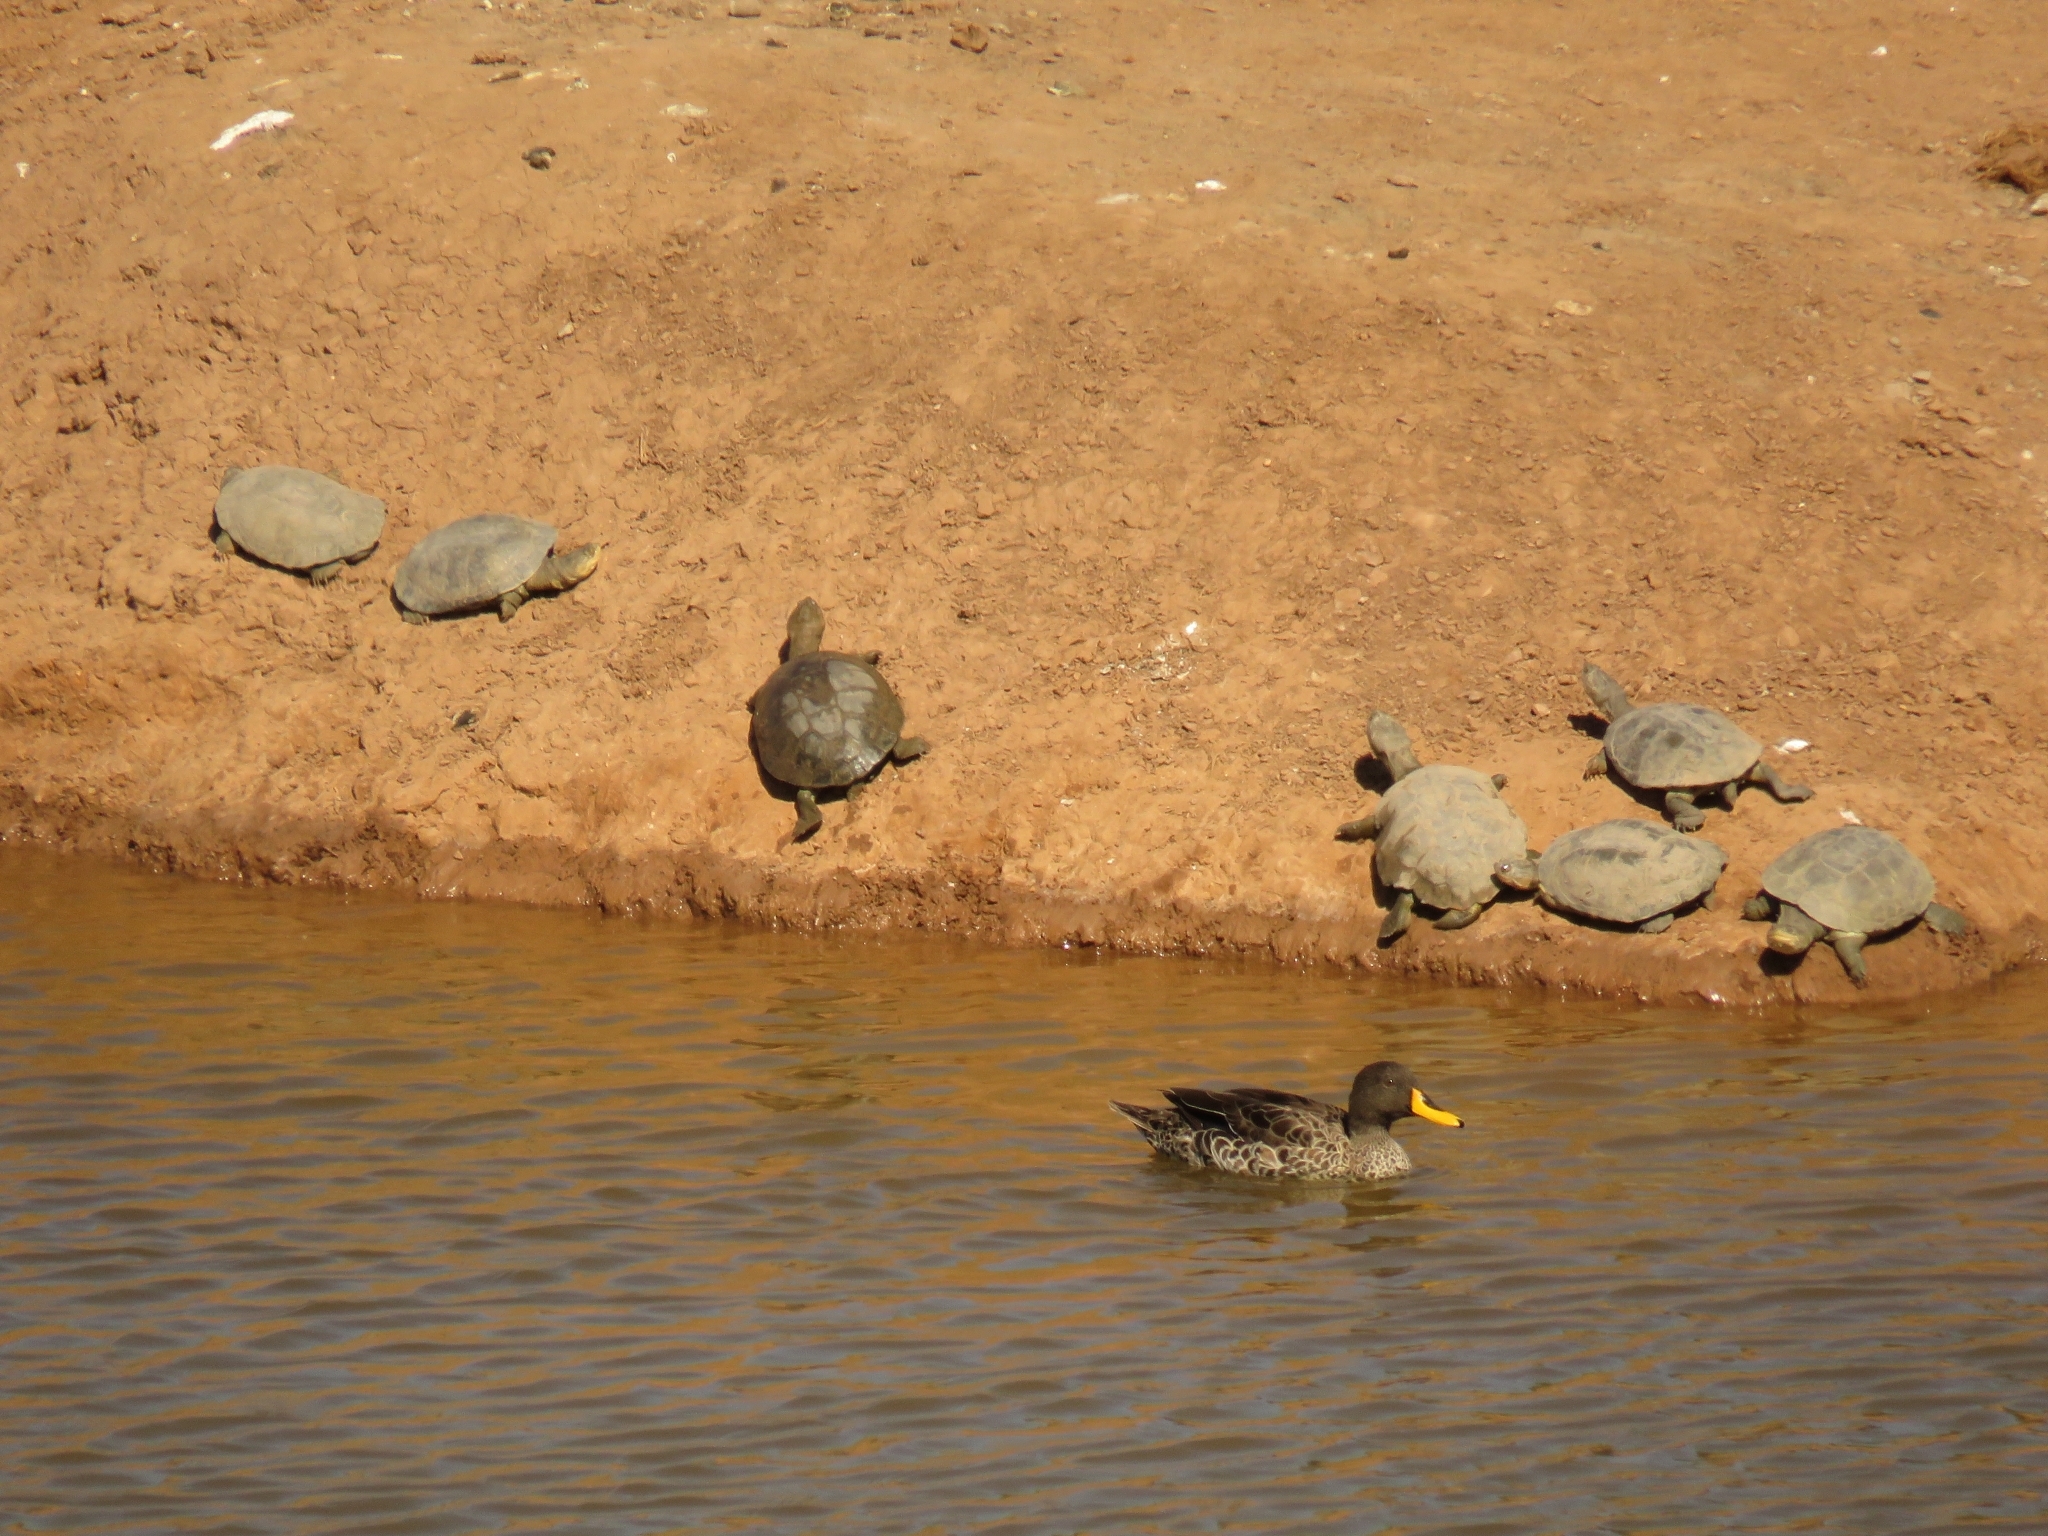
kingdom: Animalia
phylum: Chordata
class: Testudines
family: Pelomedusidae
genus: Pelomedusa
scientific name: Pelomedusa galeata
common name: South african helmeted terrapin
